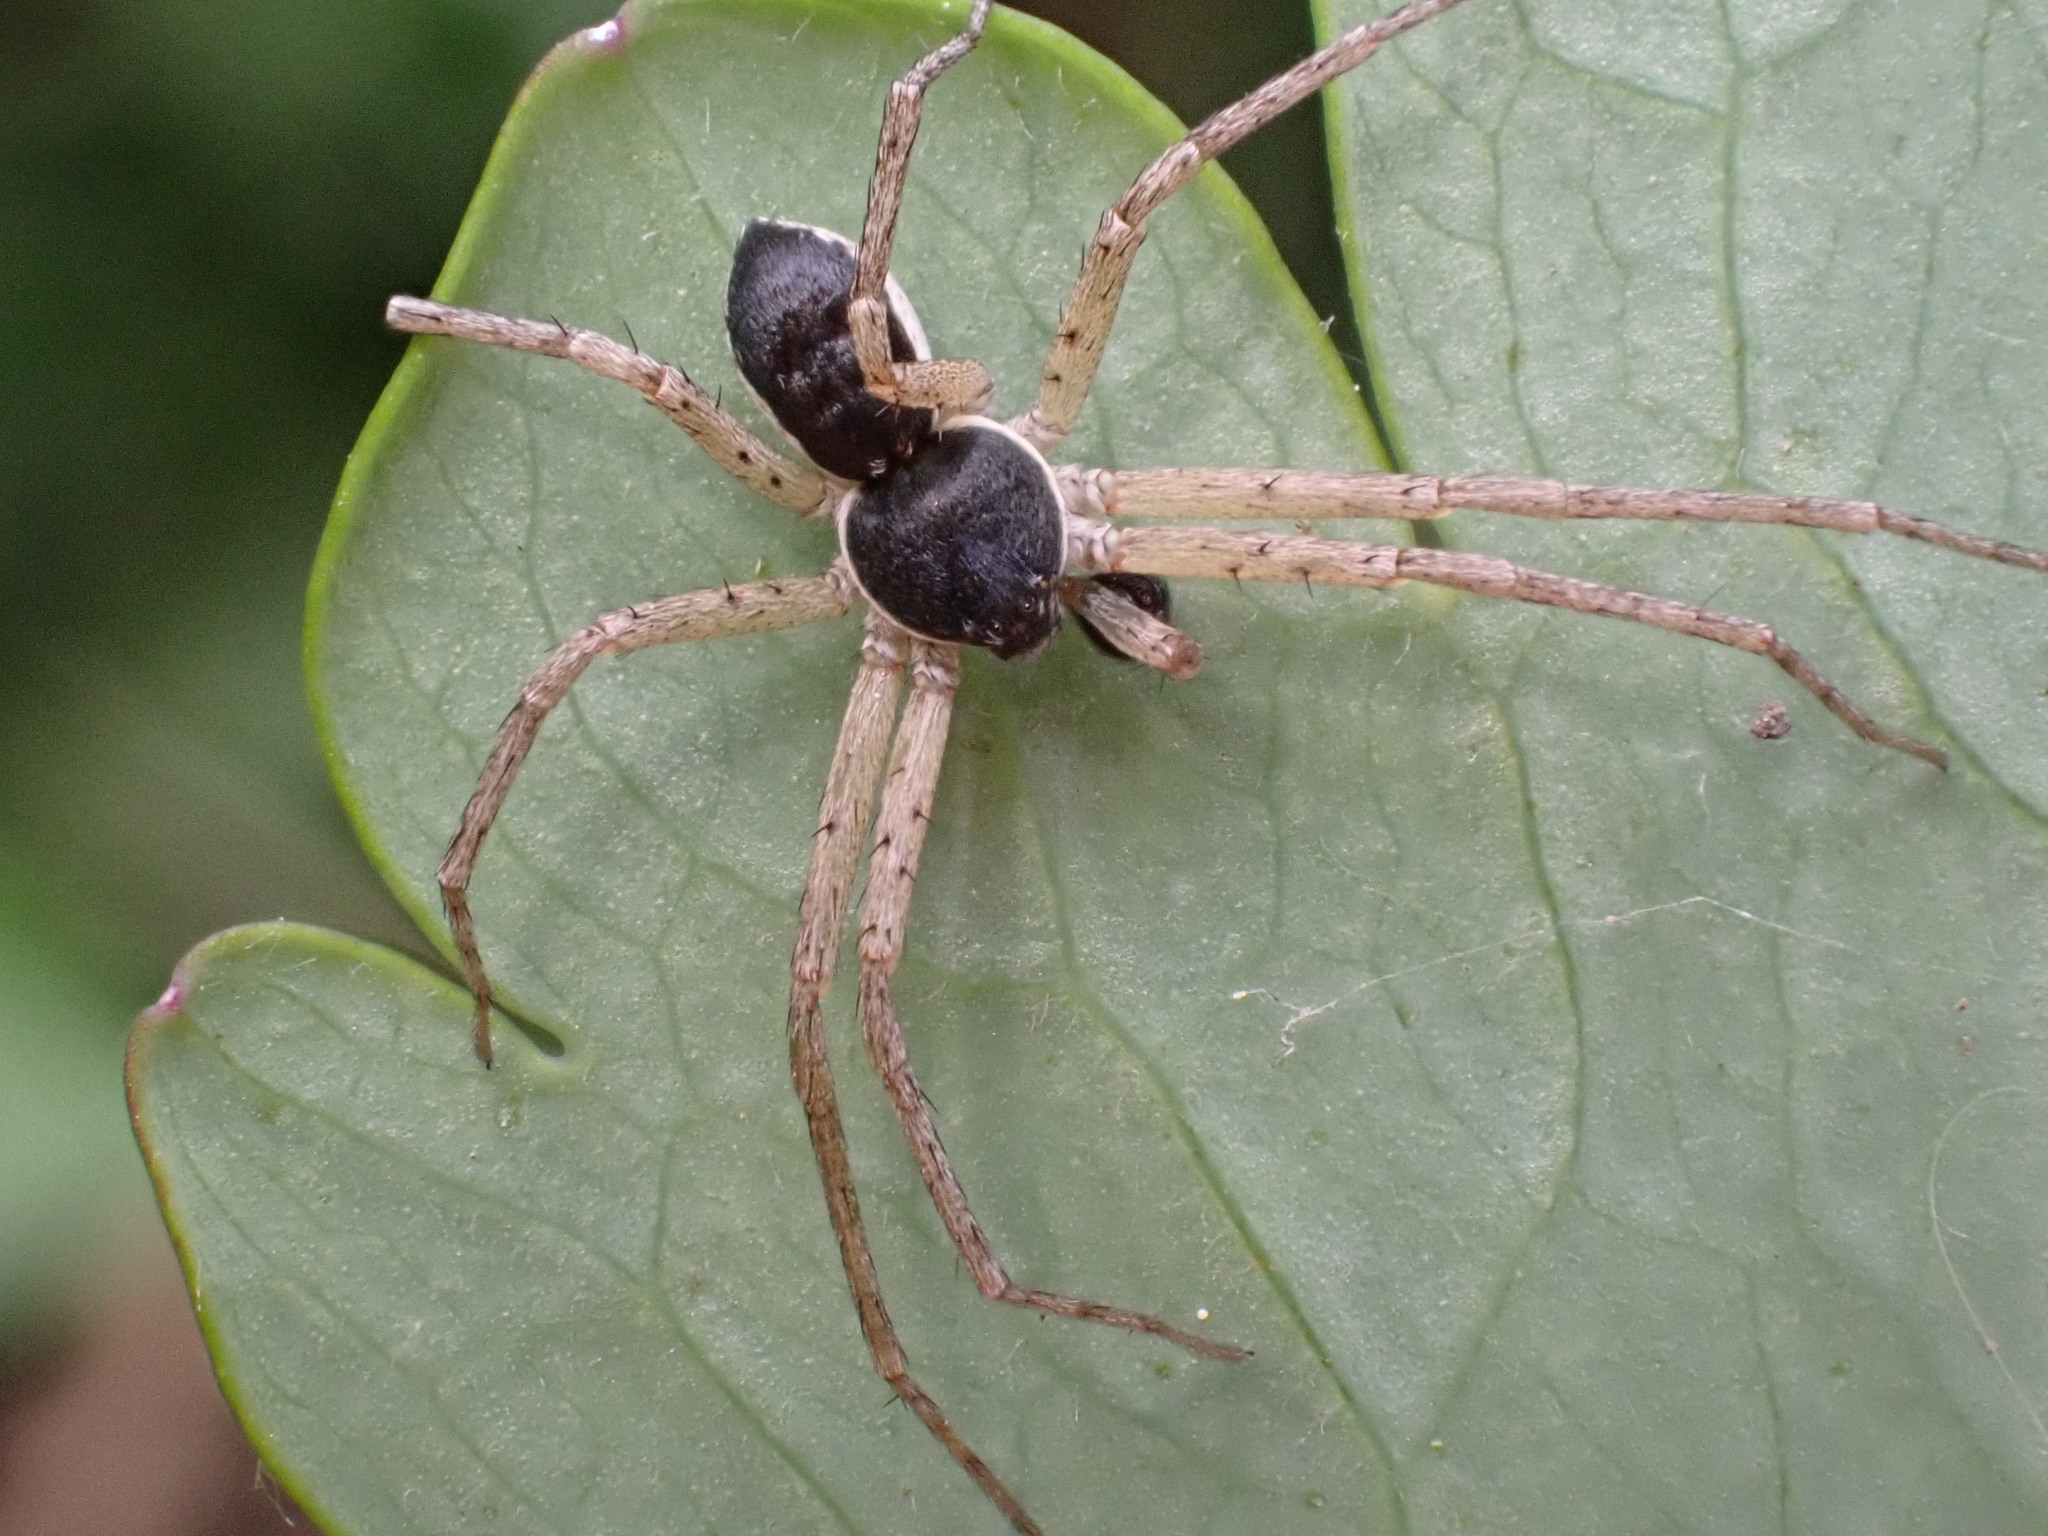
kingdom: Animalia
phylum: Arthropoda
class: Arachnida
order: Araneae
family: Philodromidae
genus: Philodromus
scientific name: Philodromus dispar
